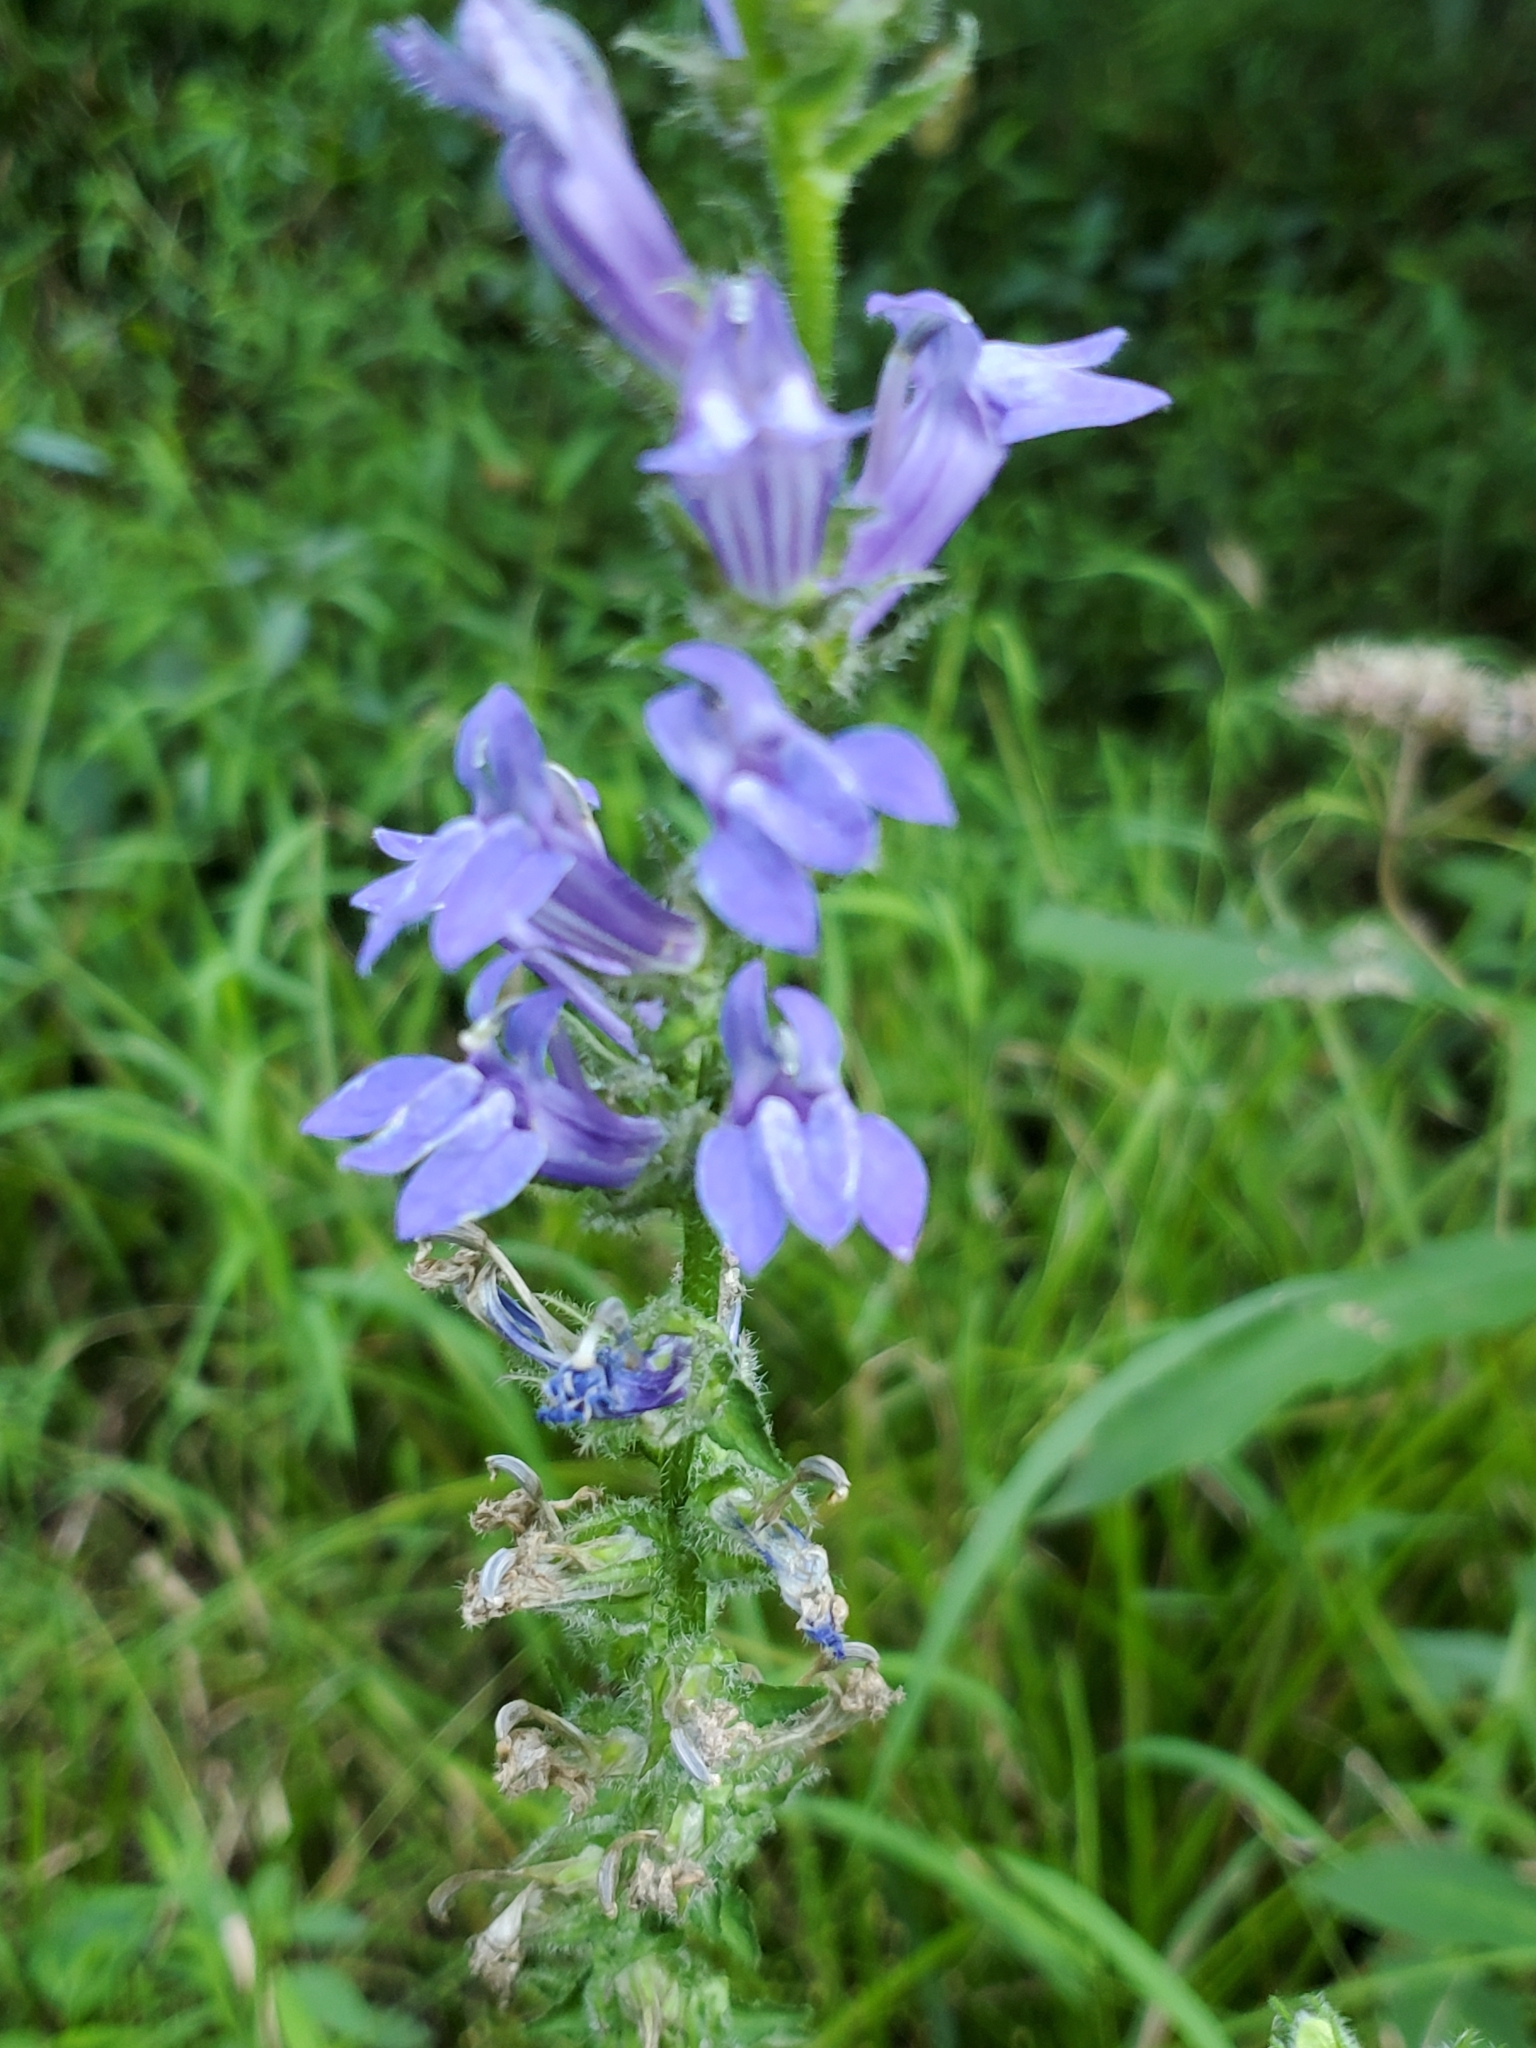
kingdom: Plantae
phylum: Tracheophyta
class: Magnoliopsida
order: Asterales
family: Campanulaceae
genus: Lobelia
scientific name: Lobelia siphilitica
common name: Great lobelia
